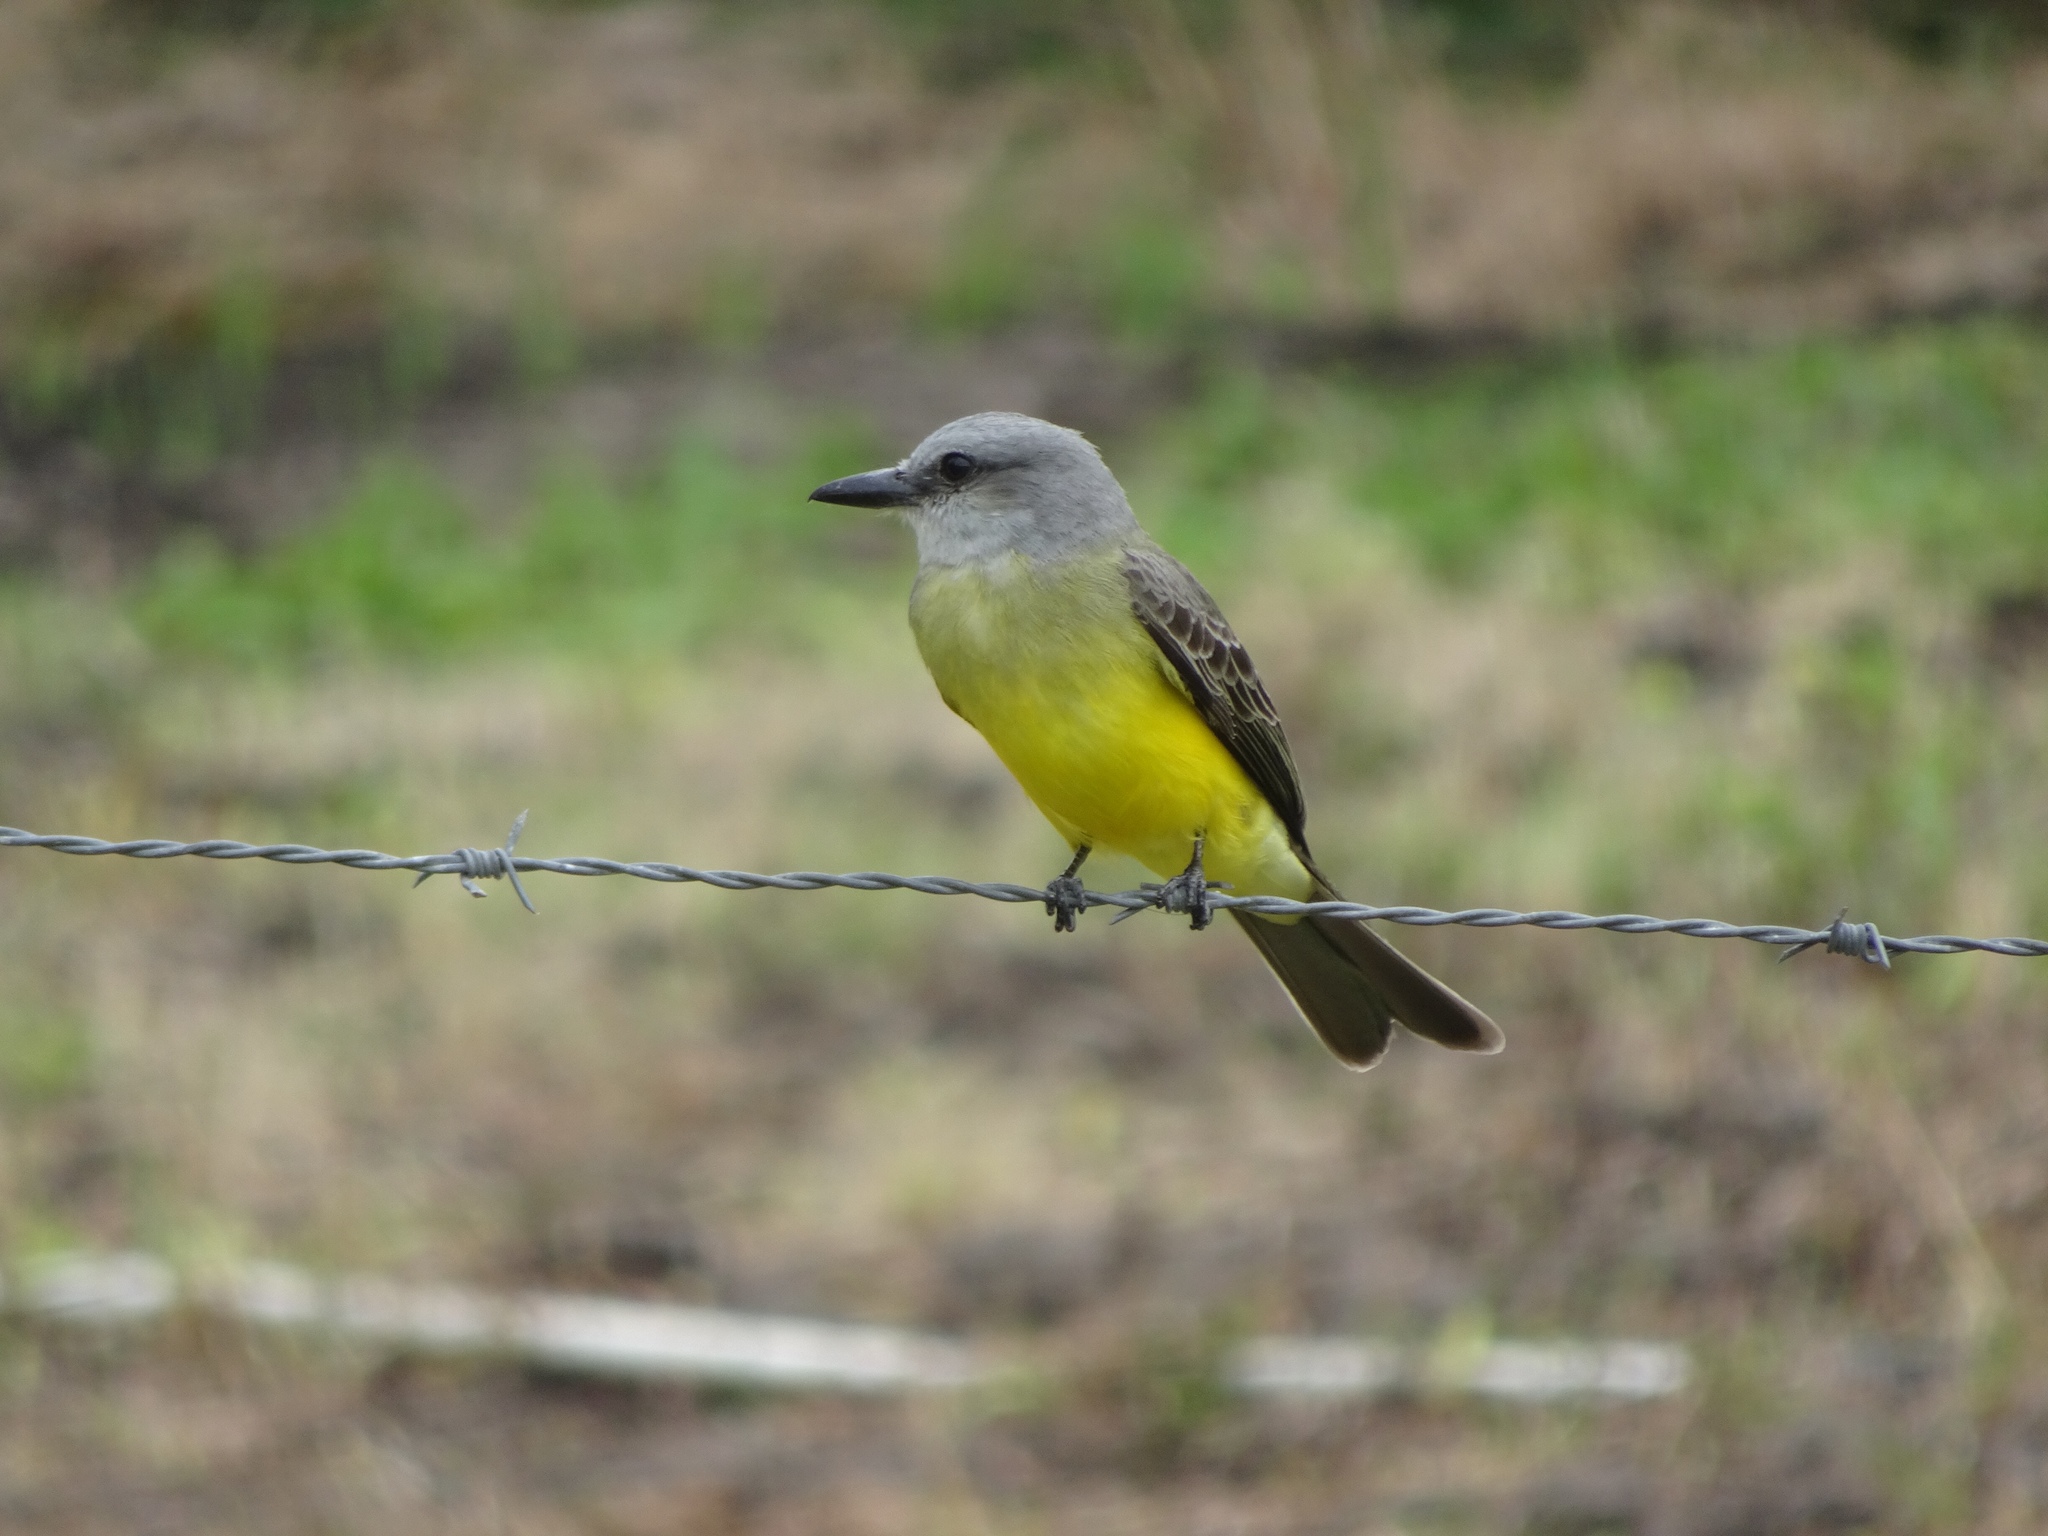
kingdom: Animalia
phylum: Chordata
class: Aves
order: Passeriformes
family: Tyrannidae
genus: Tyrannus
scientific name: Tyrannus melancholicus
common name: Tropical kingbird
